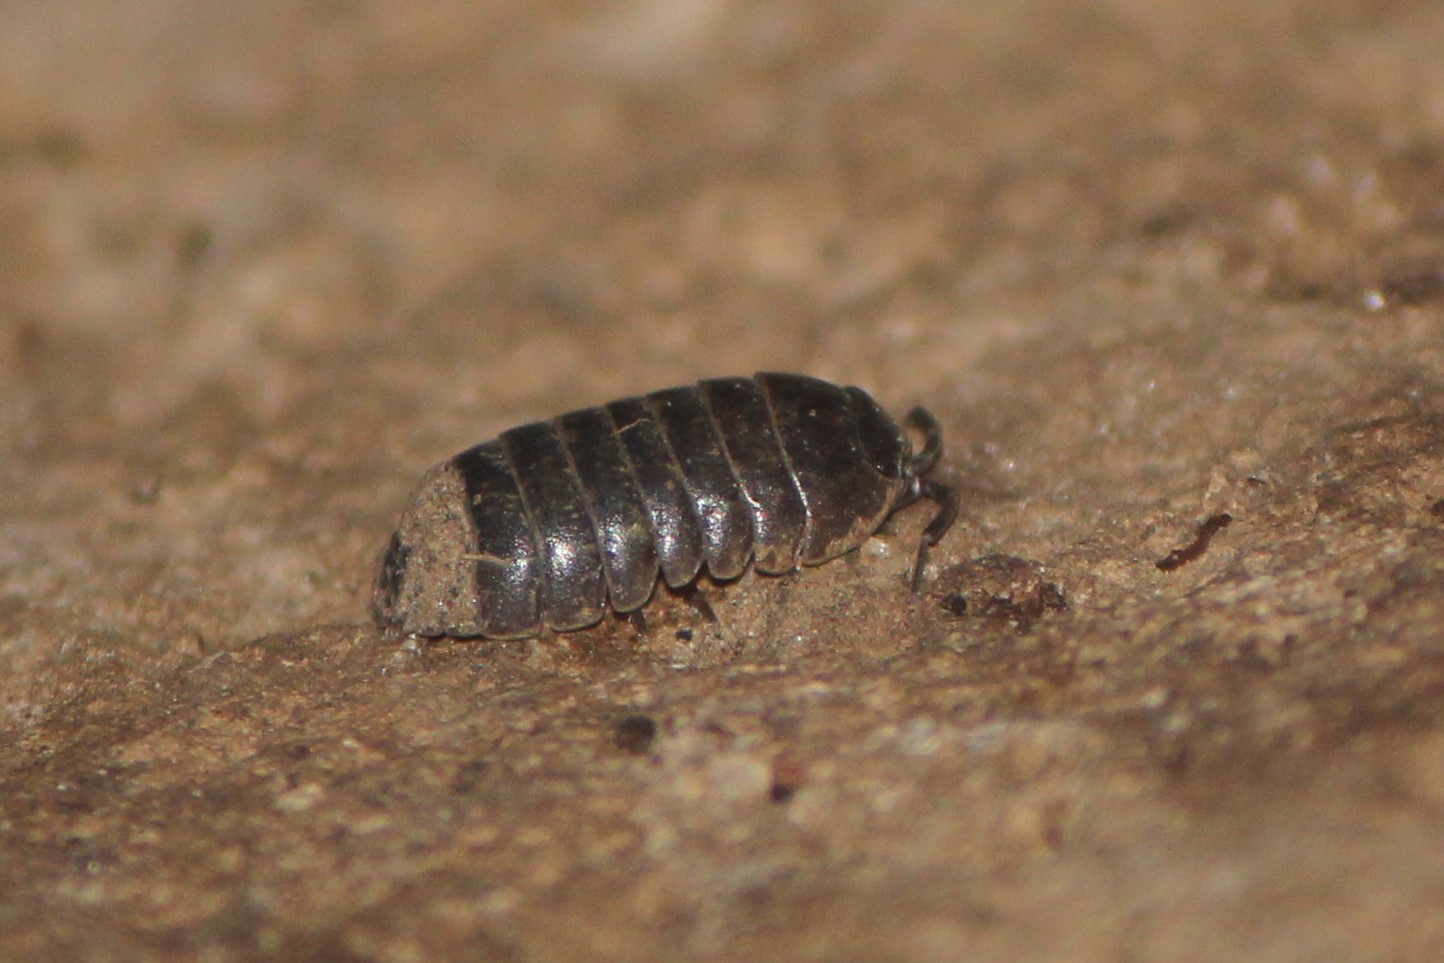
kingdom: Animalia
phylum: Arthropoda
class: Malacostraca
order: Isopoda
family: Armadillidiidae
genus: Armadillidium
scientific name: Armadillidium vulgare
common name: Common pill woodlouse
